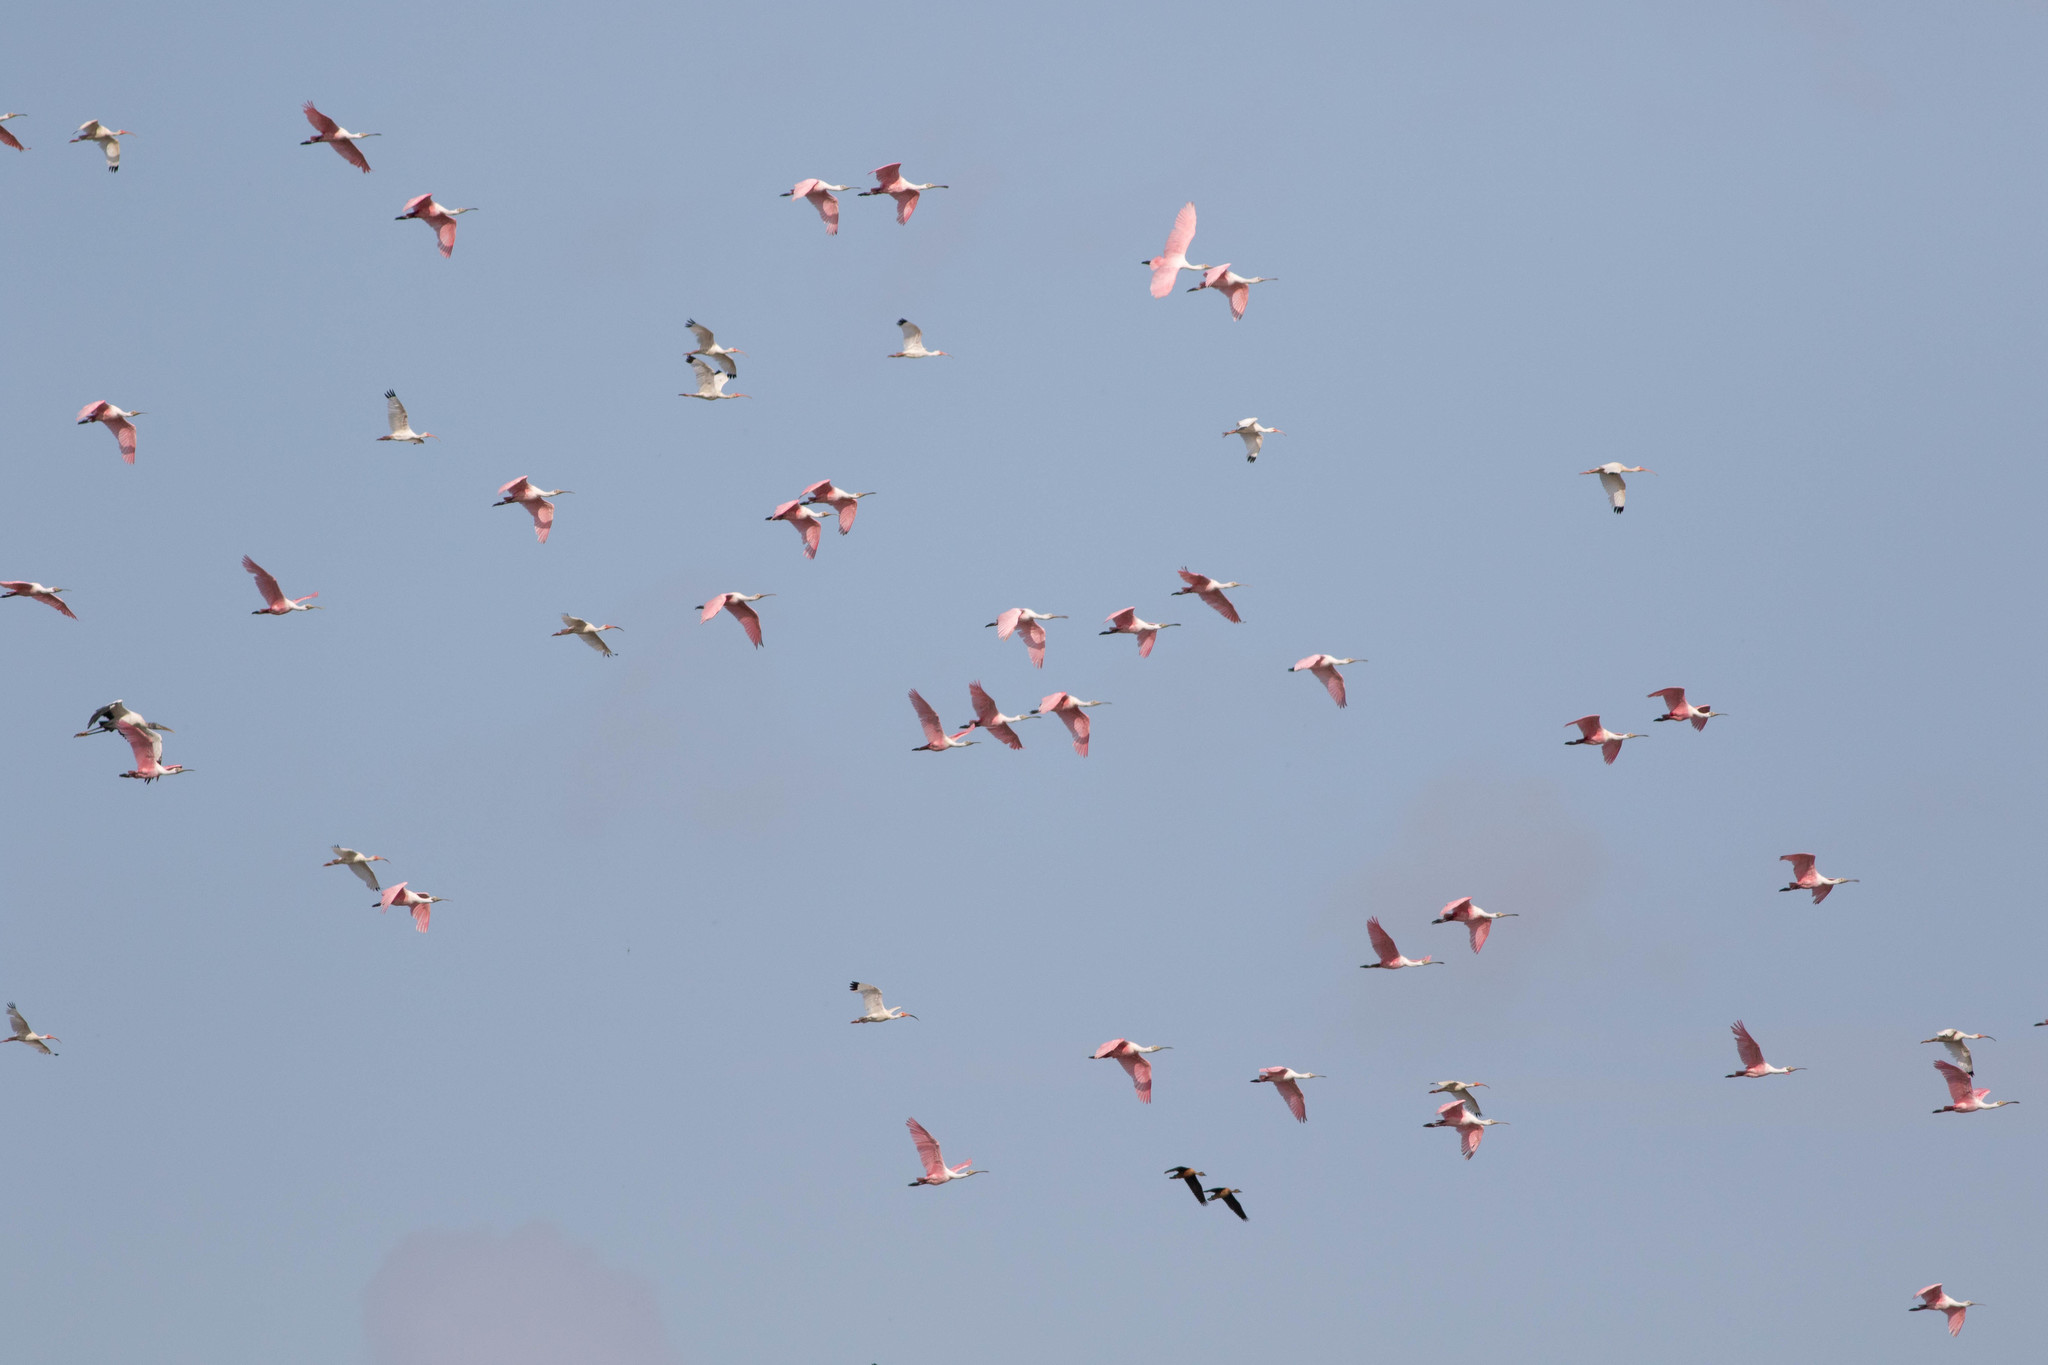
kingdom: Animalia
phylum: Chordata
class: Aves
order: Pelecaniformes
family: Threskiornithidae
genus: Platalea
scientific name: Platalea ajaja
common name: Roseate spoonbill
